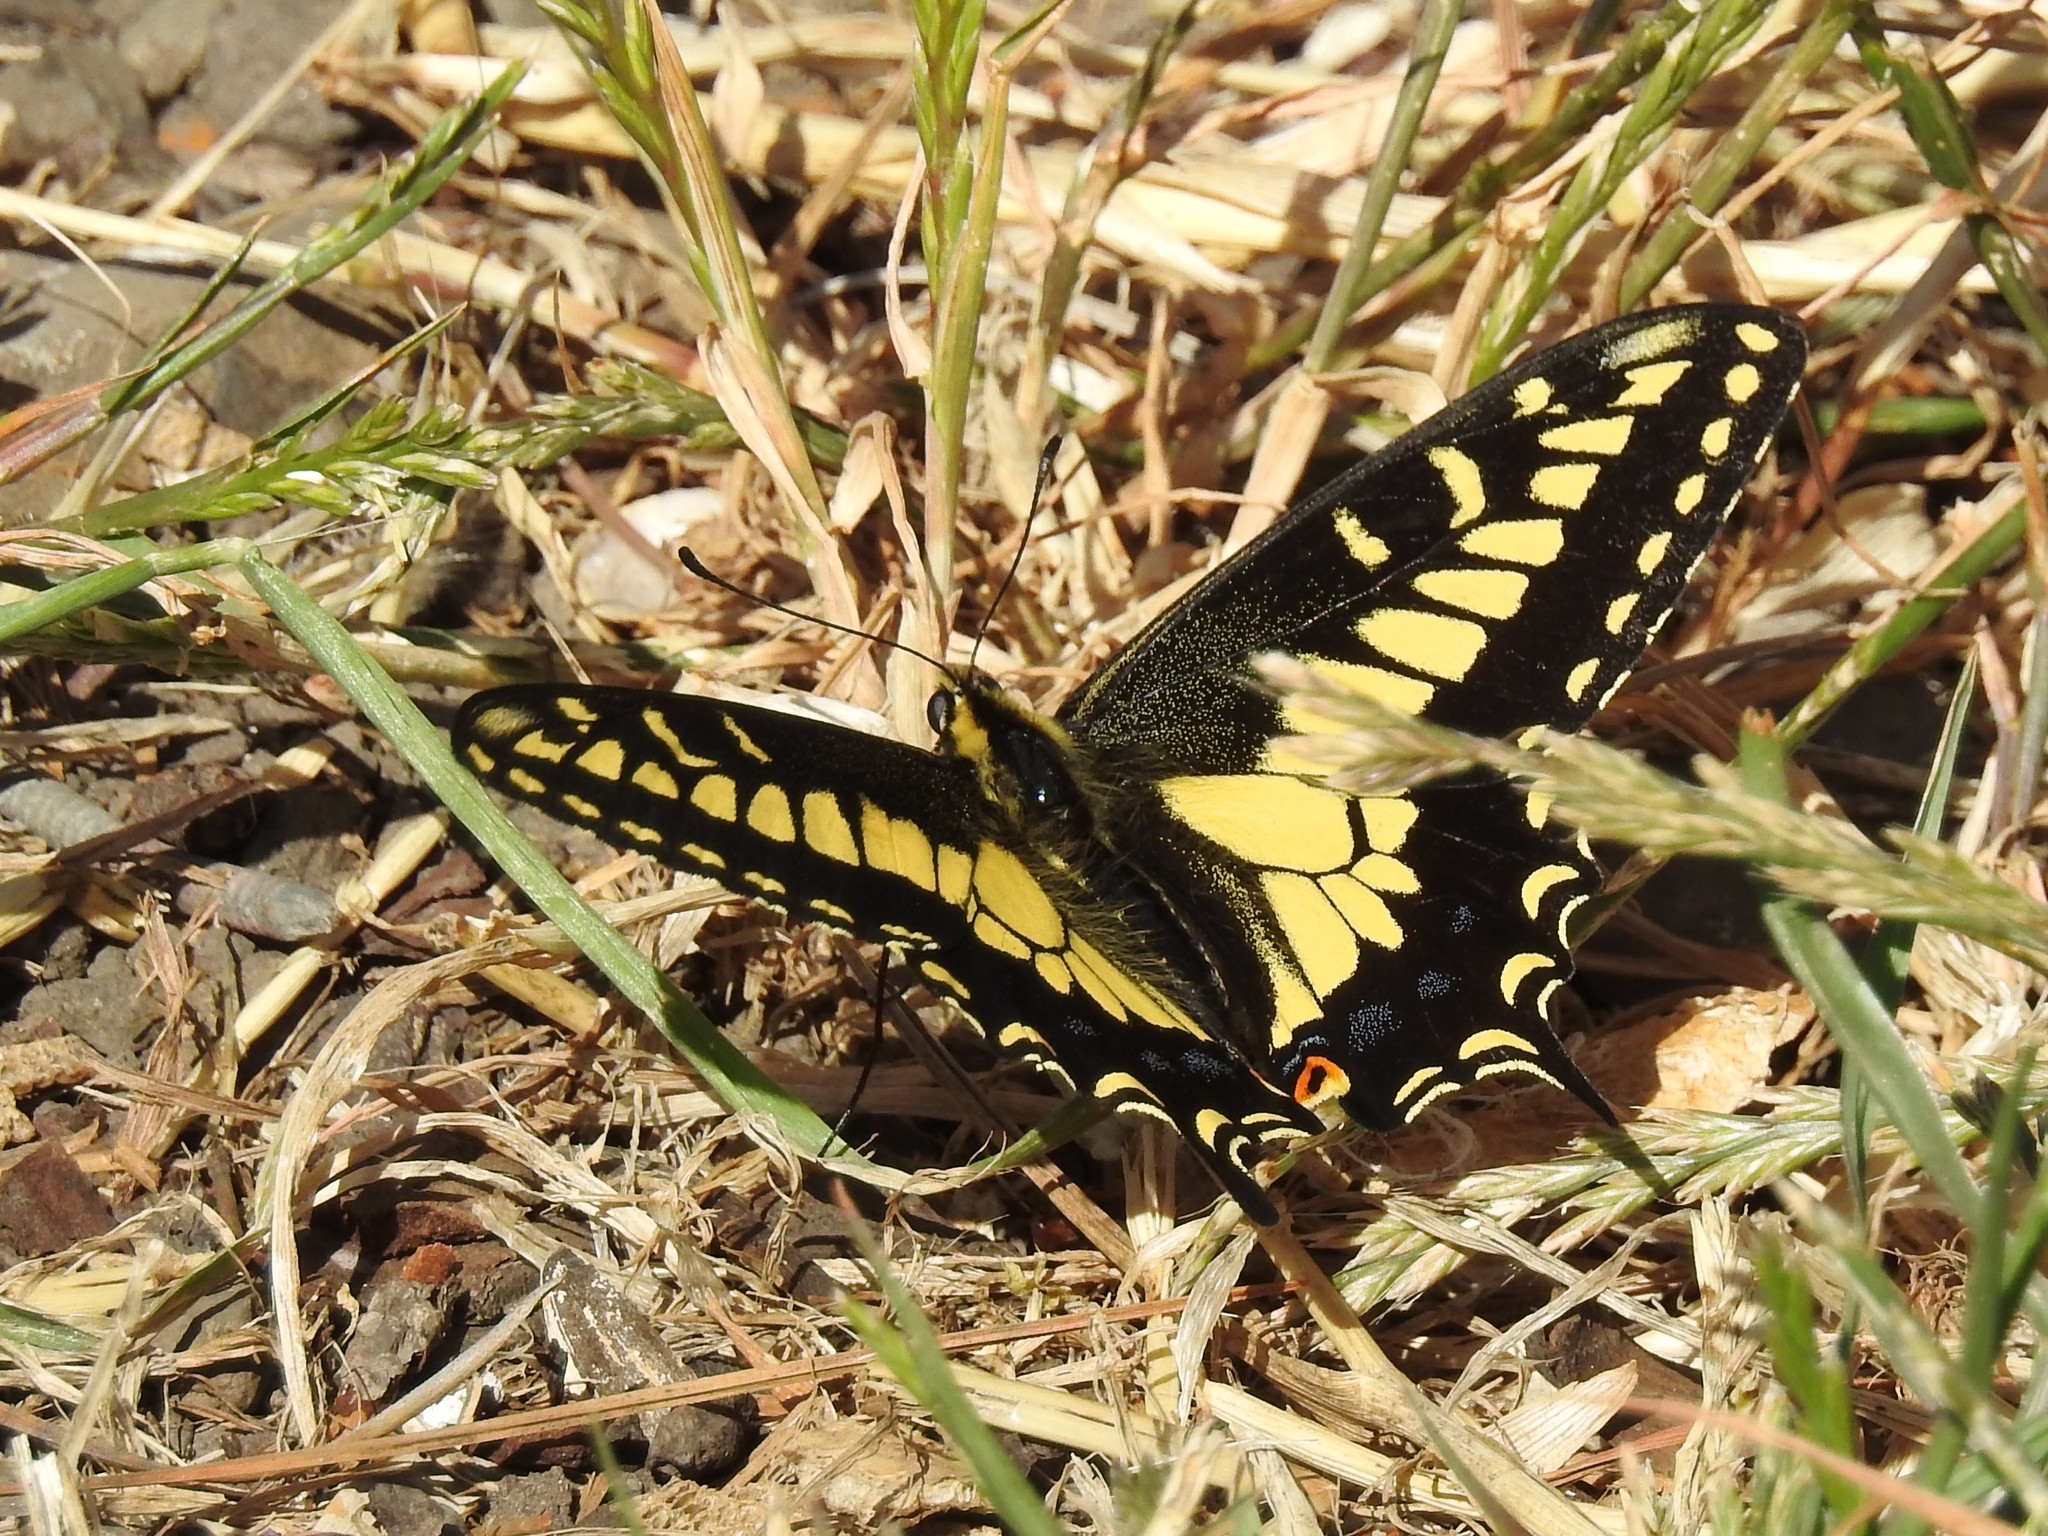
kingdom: Animalia
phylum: Arthropoda
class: Insecta
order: Lepidoptera
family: Papilionidae
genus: Papilio
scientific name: Papilio zelicaon
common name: Anise swallowtail
